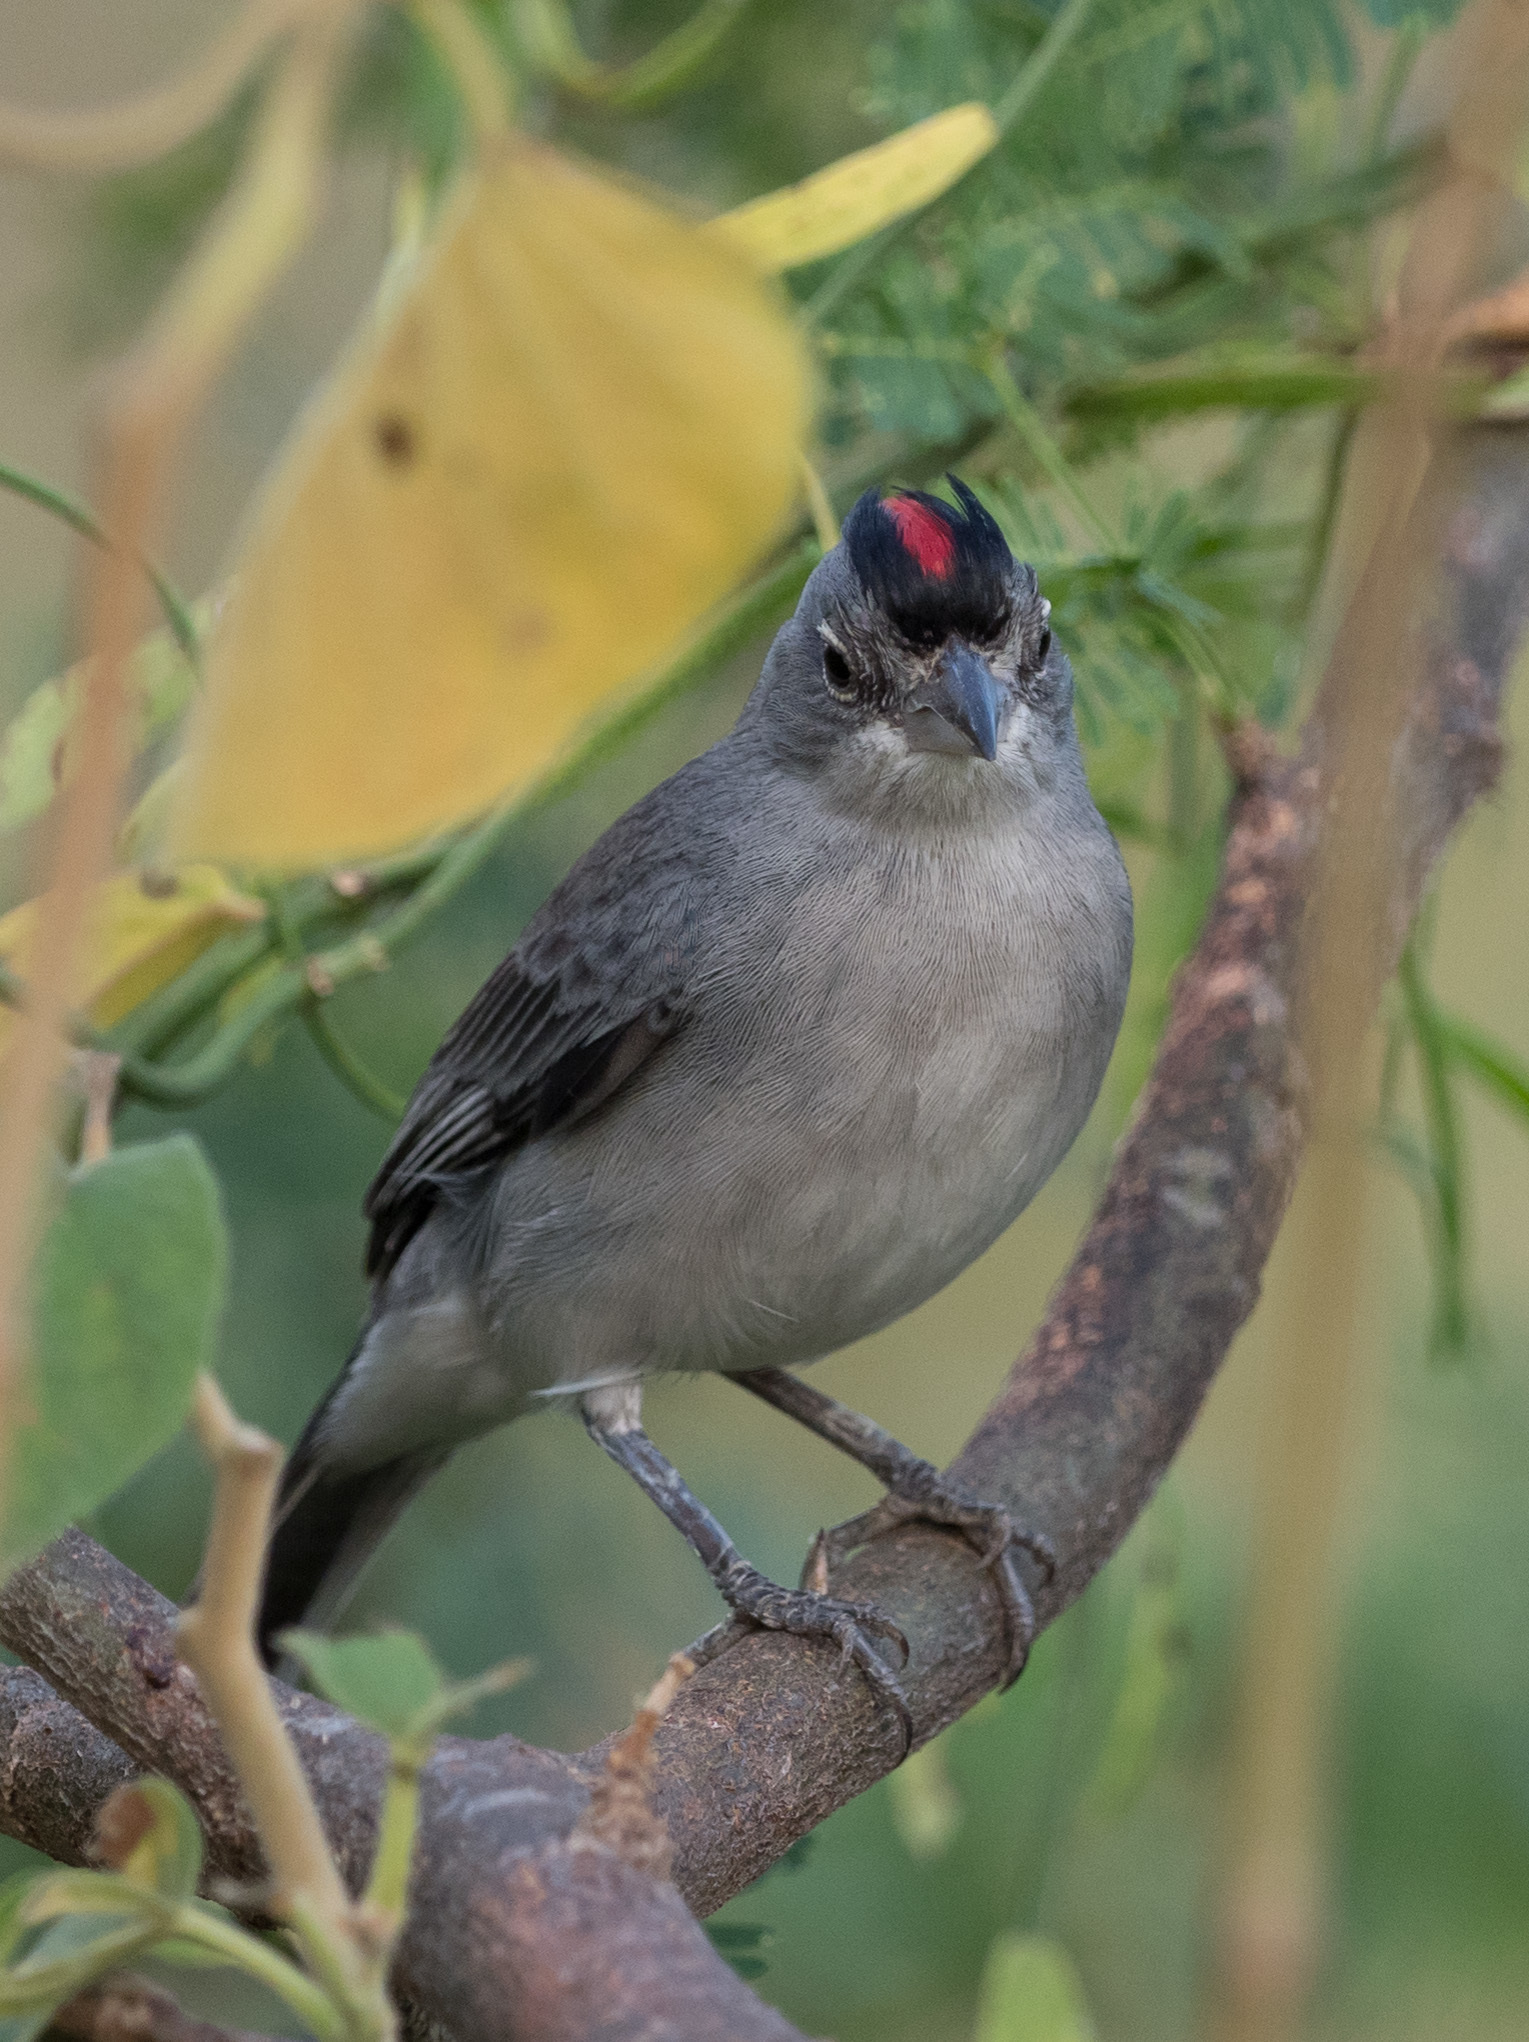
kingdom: Animalia
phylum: Chordata
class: Aves
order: Passeriformes
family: Thraupidae
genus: Coryphospingus
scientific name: Coryphospingus pileatus
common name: Grey pileated finch
